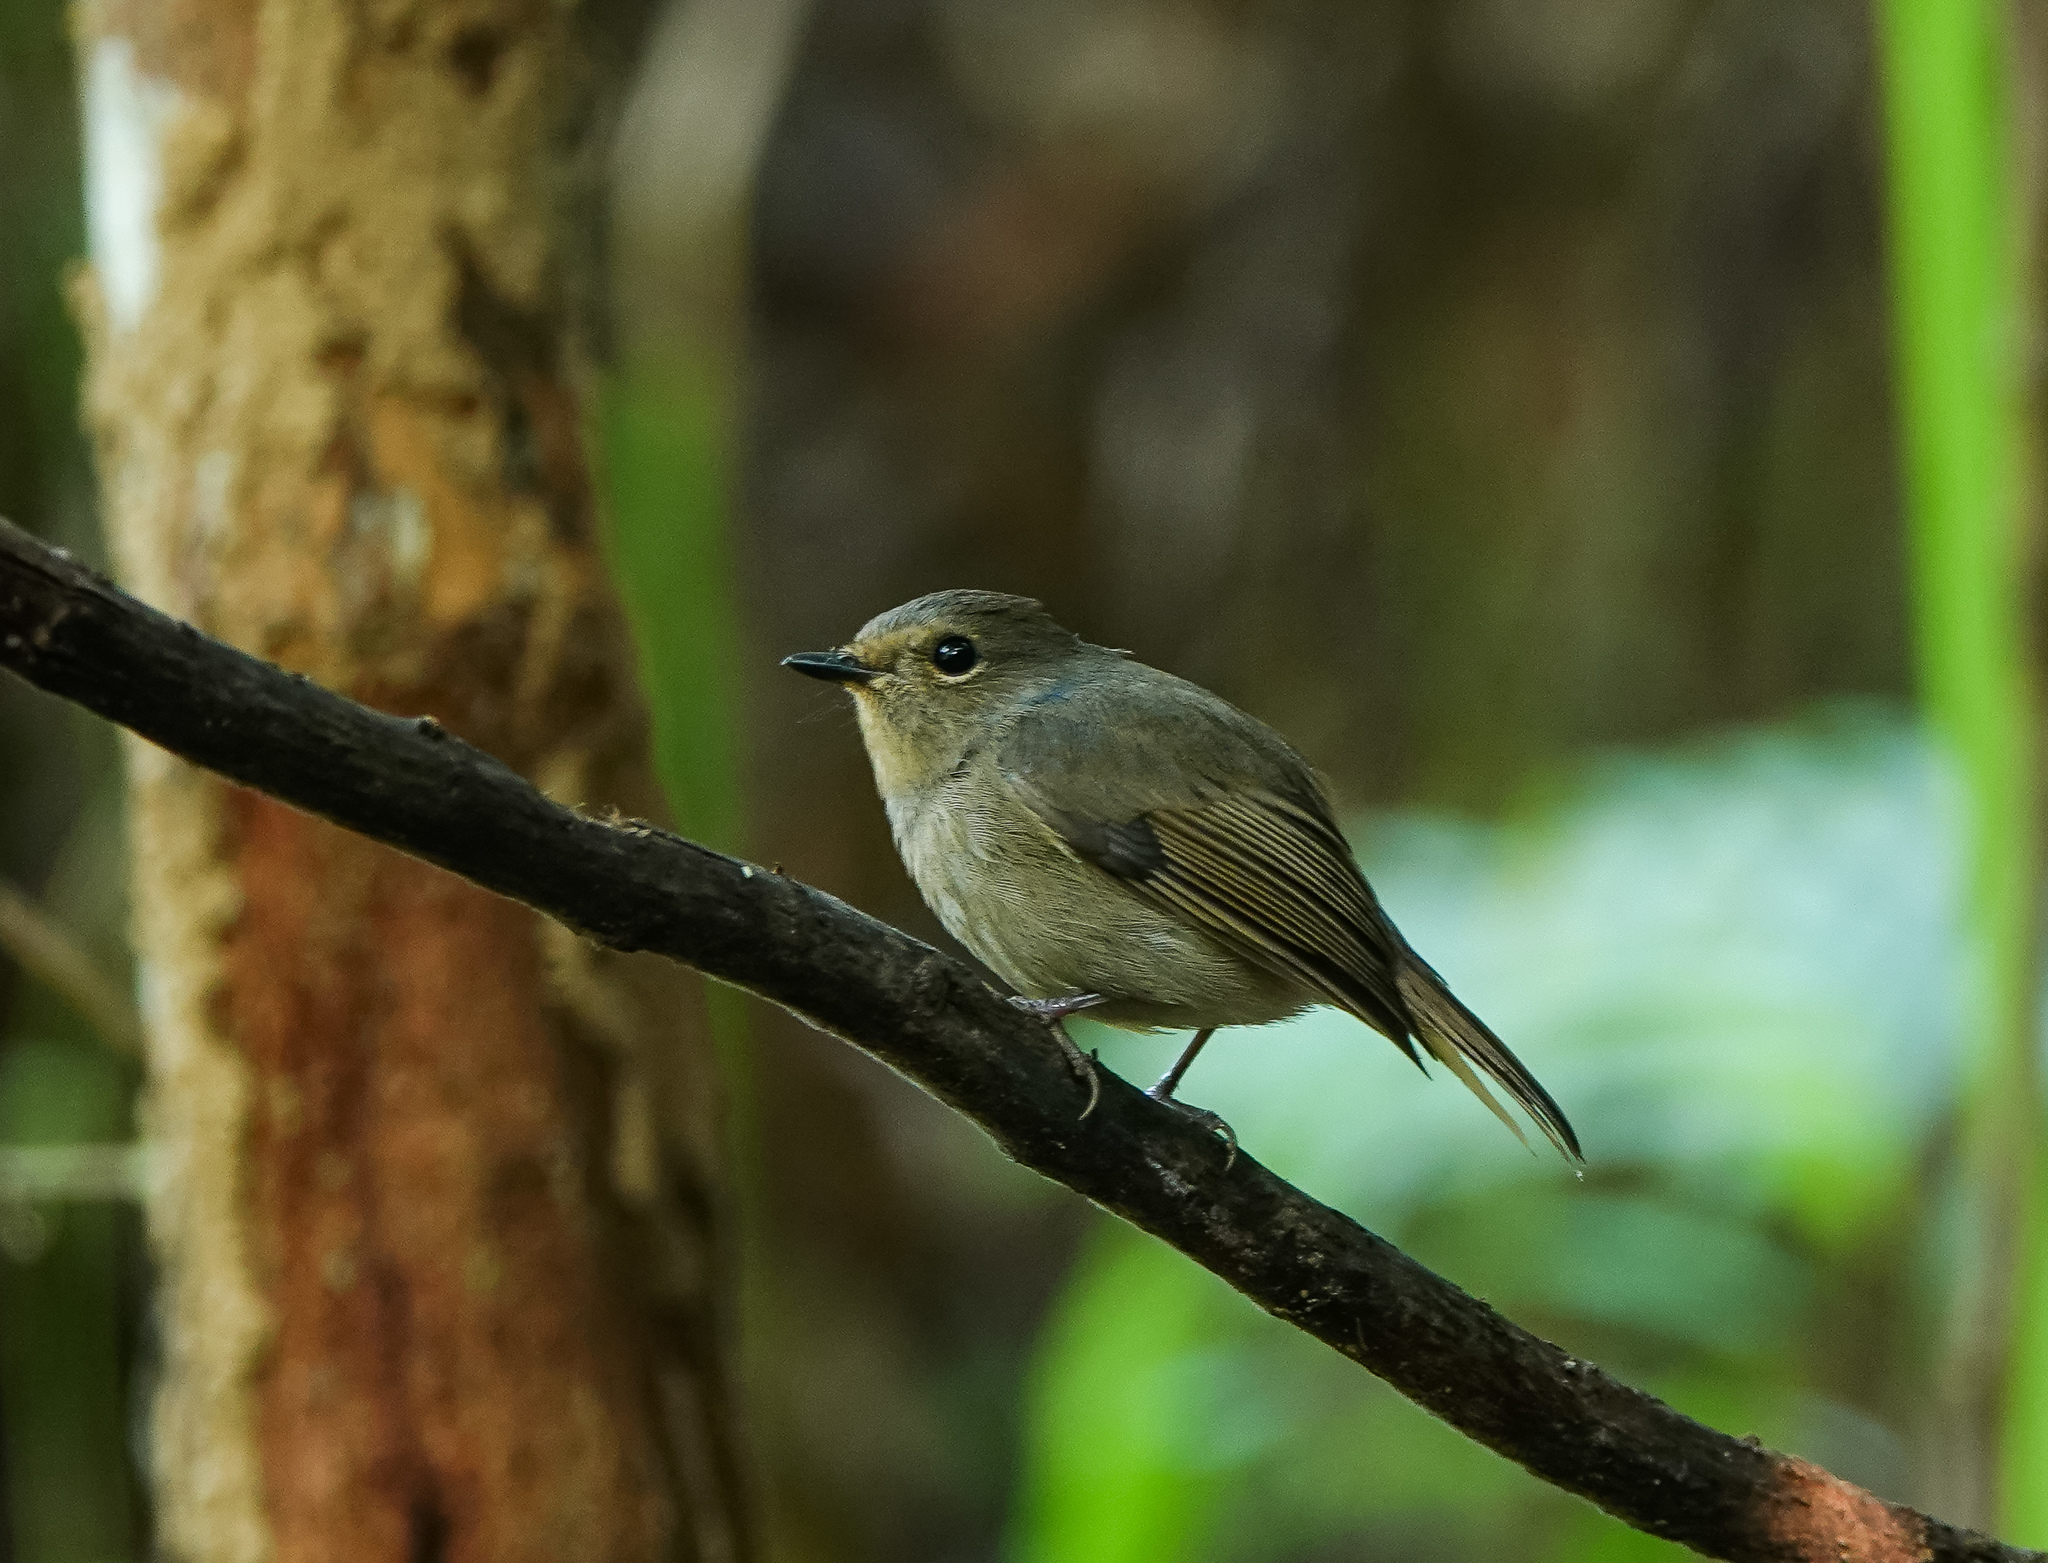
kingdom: Animalia
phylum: Chordata
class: Aves
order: Passeriformes
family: Muscicapidae
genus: Niltava
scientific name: Niltava macgrigoriae
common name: Small niltava
